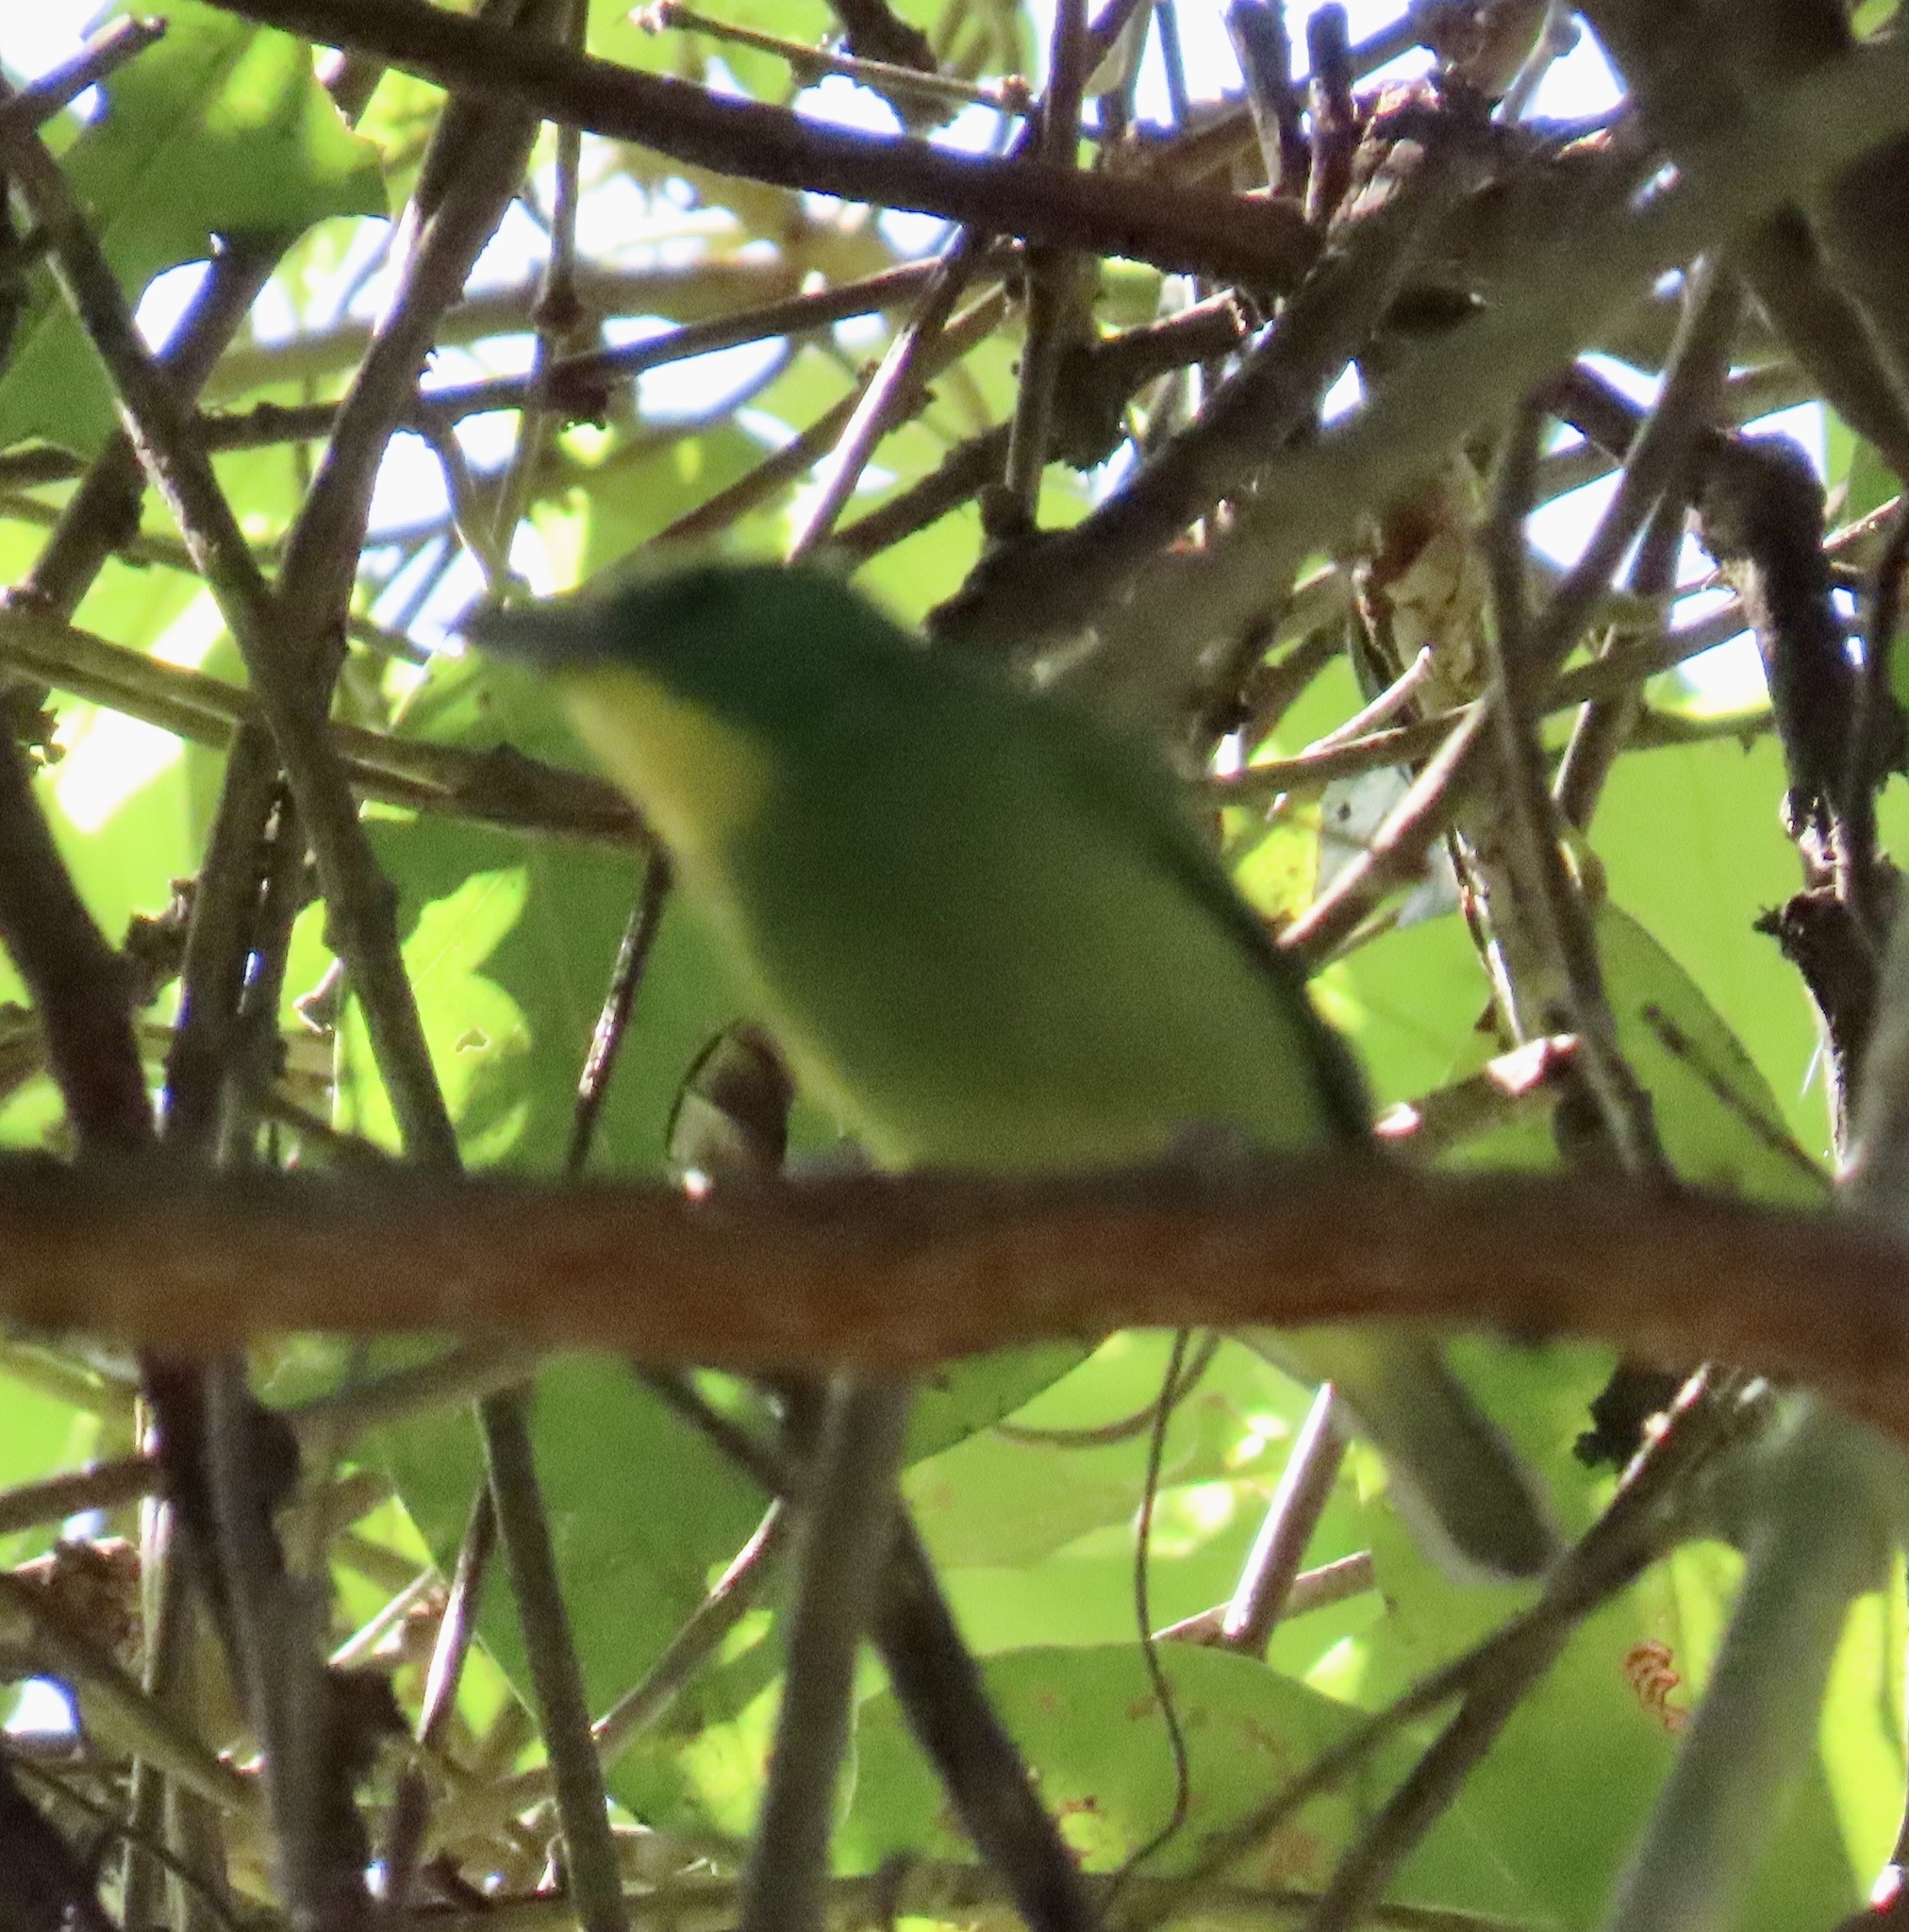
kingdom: Animalia
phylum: Chordata
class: Aves
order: Passeriformes
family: Vireonidae
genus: Vireolanius
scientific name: Vireolanius pulchellus
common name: Green shrike-vireo
